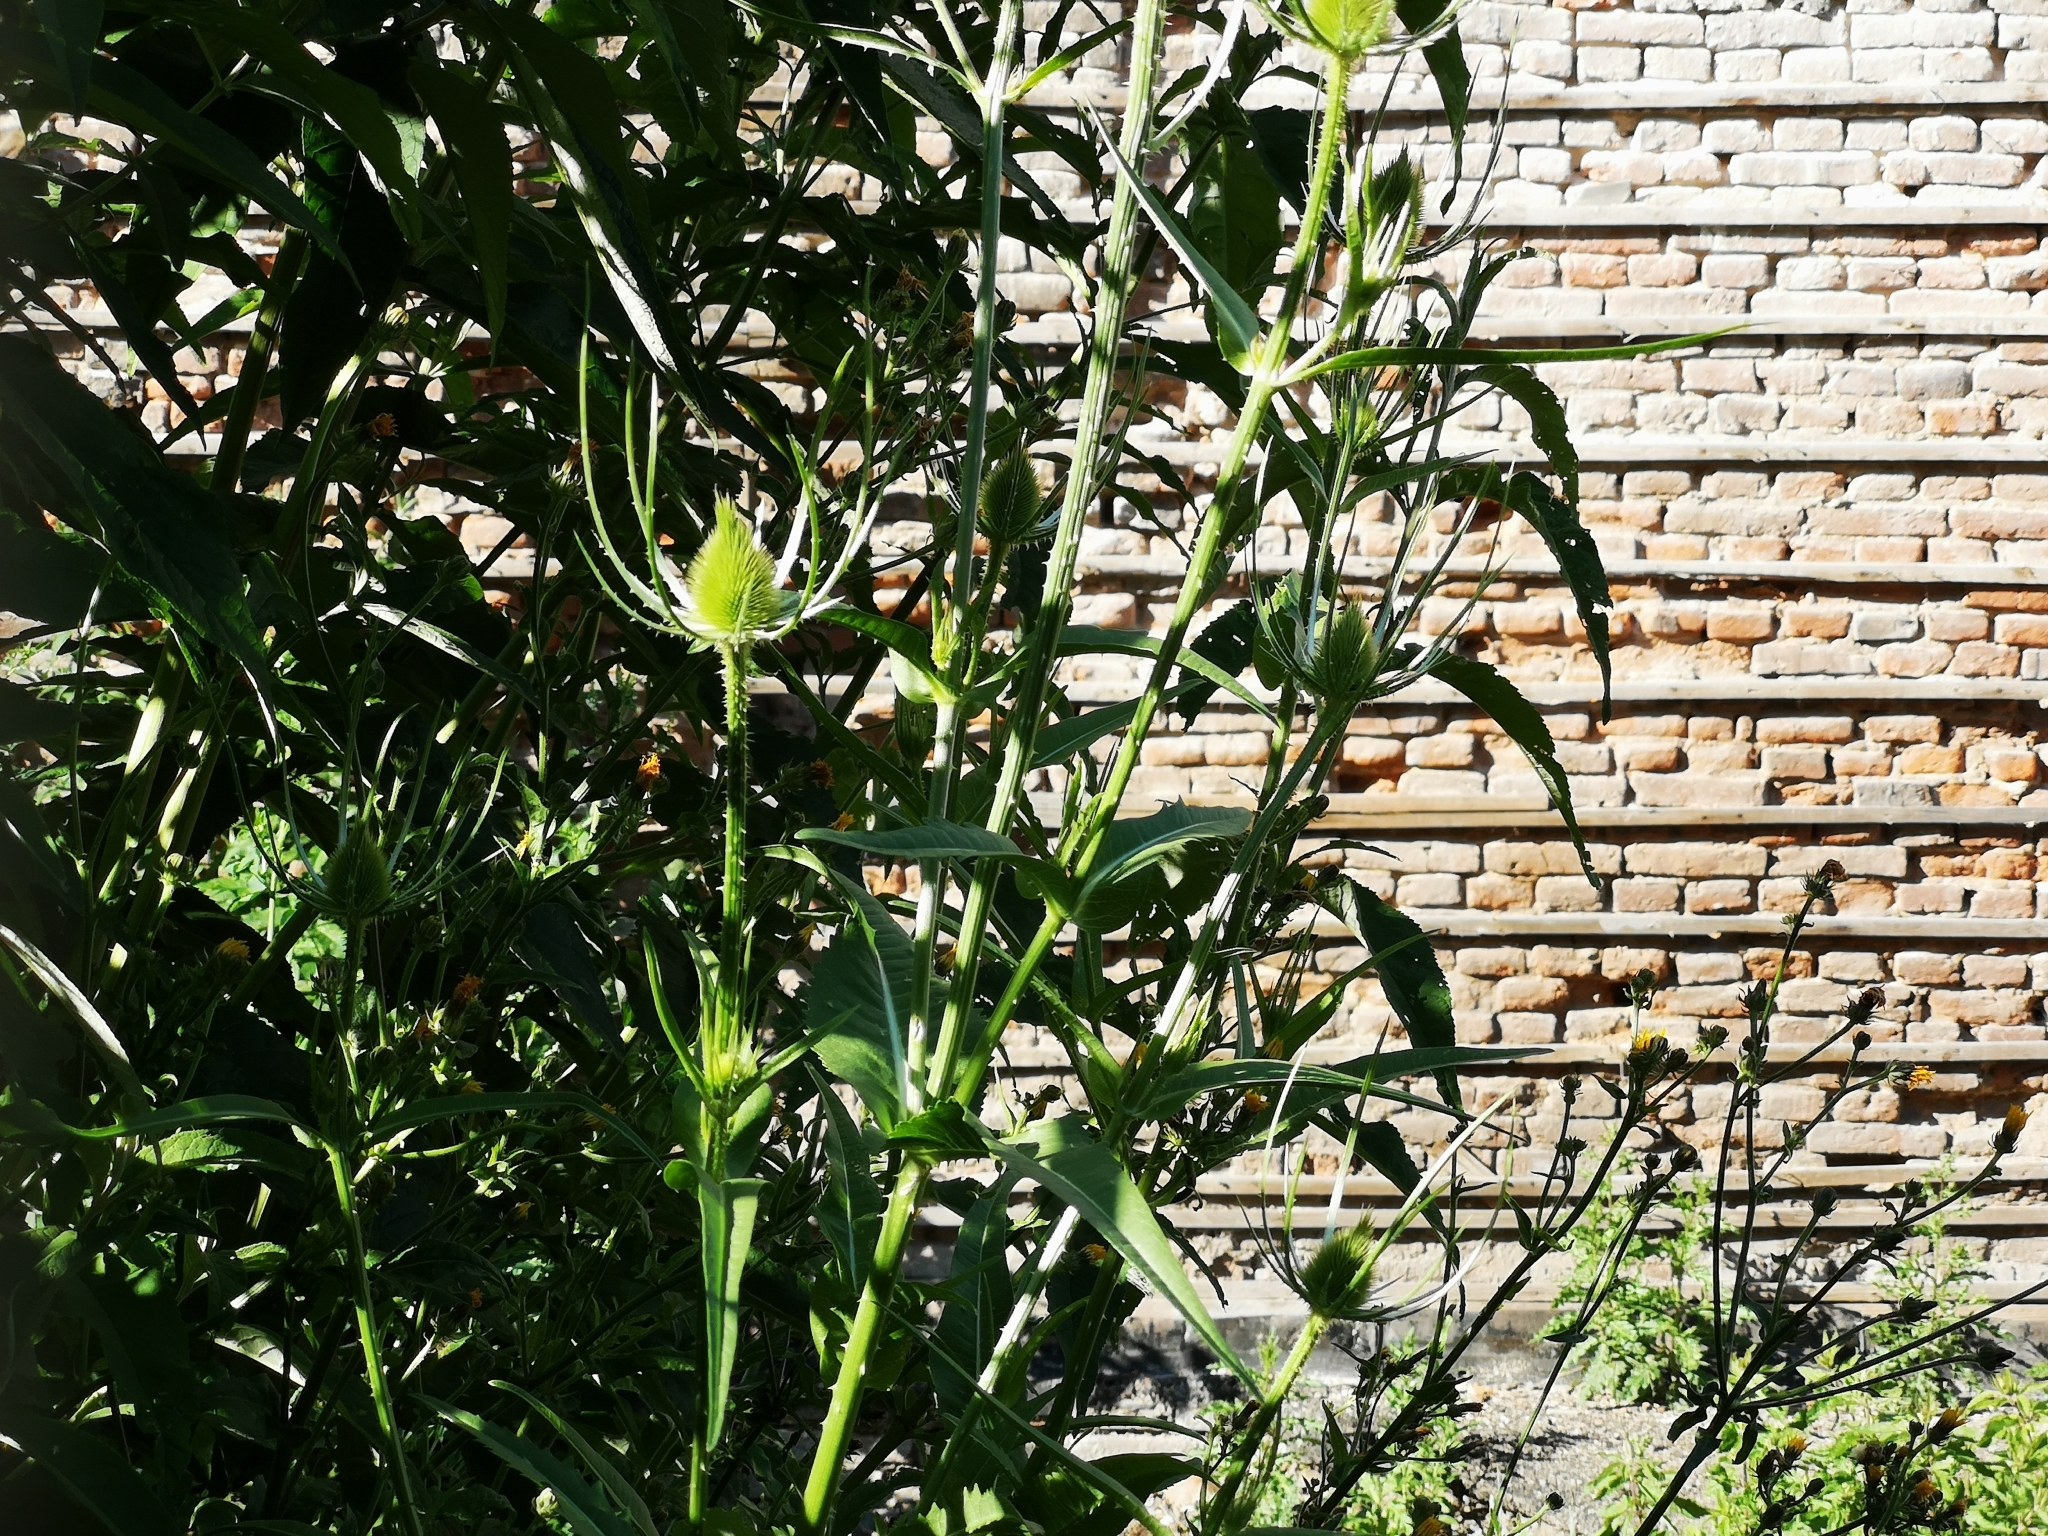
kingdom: Plantae
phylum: Tracheophyta
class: Magnoliopsida
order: Dipsacales
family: Caprifoliaceae
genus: Dipsacus
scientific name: Dipsacus fullonum
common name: Teasel
